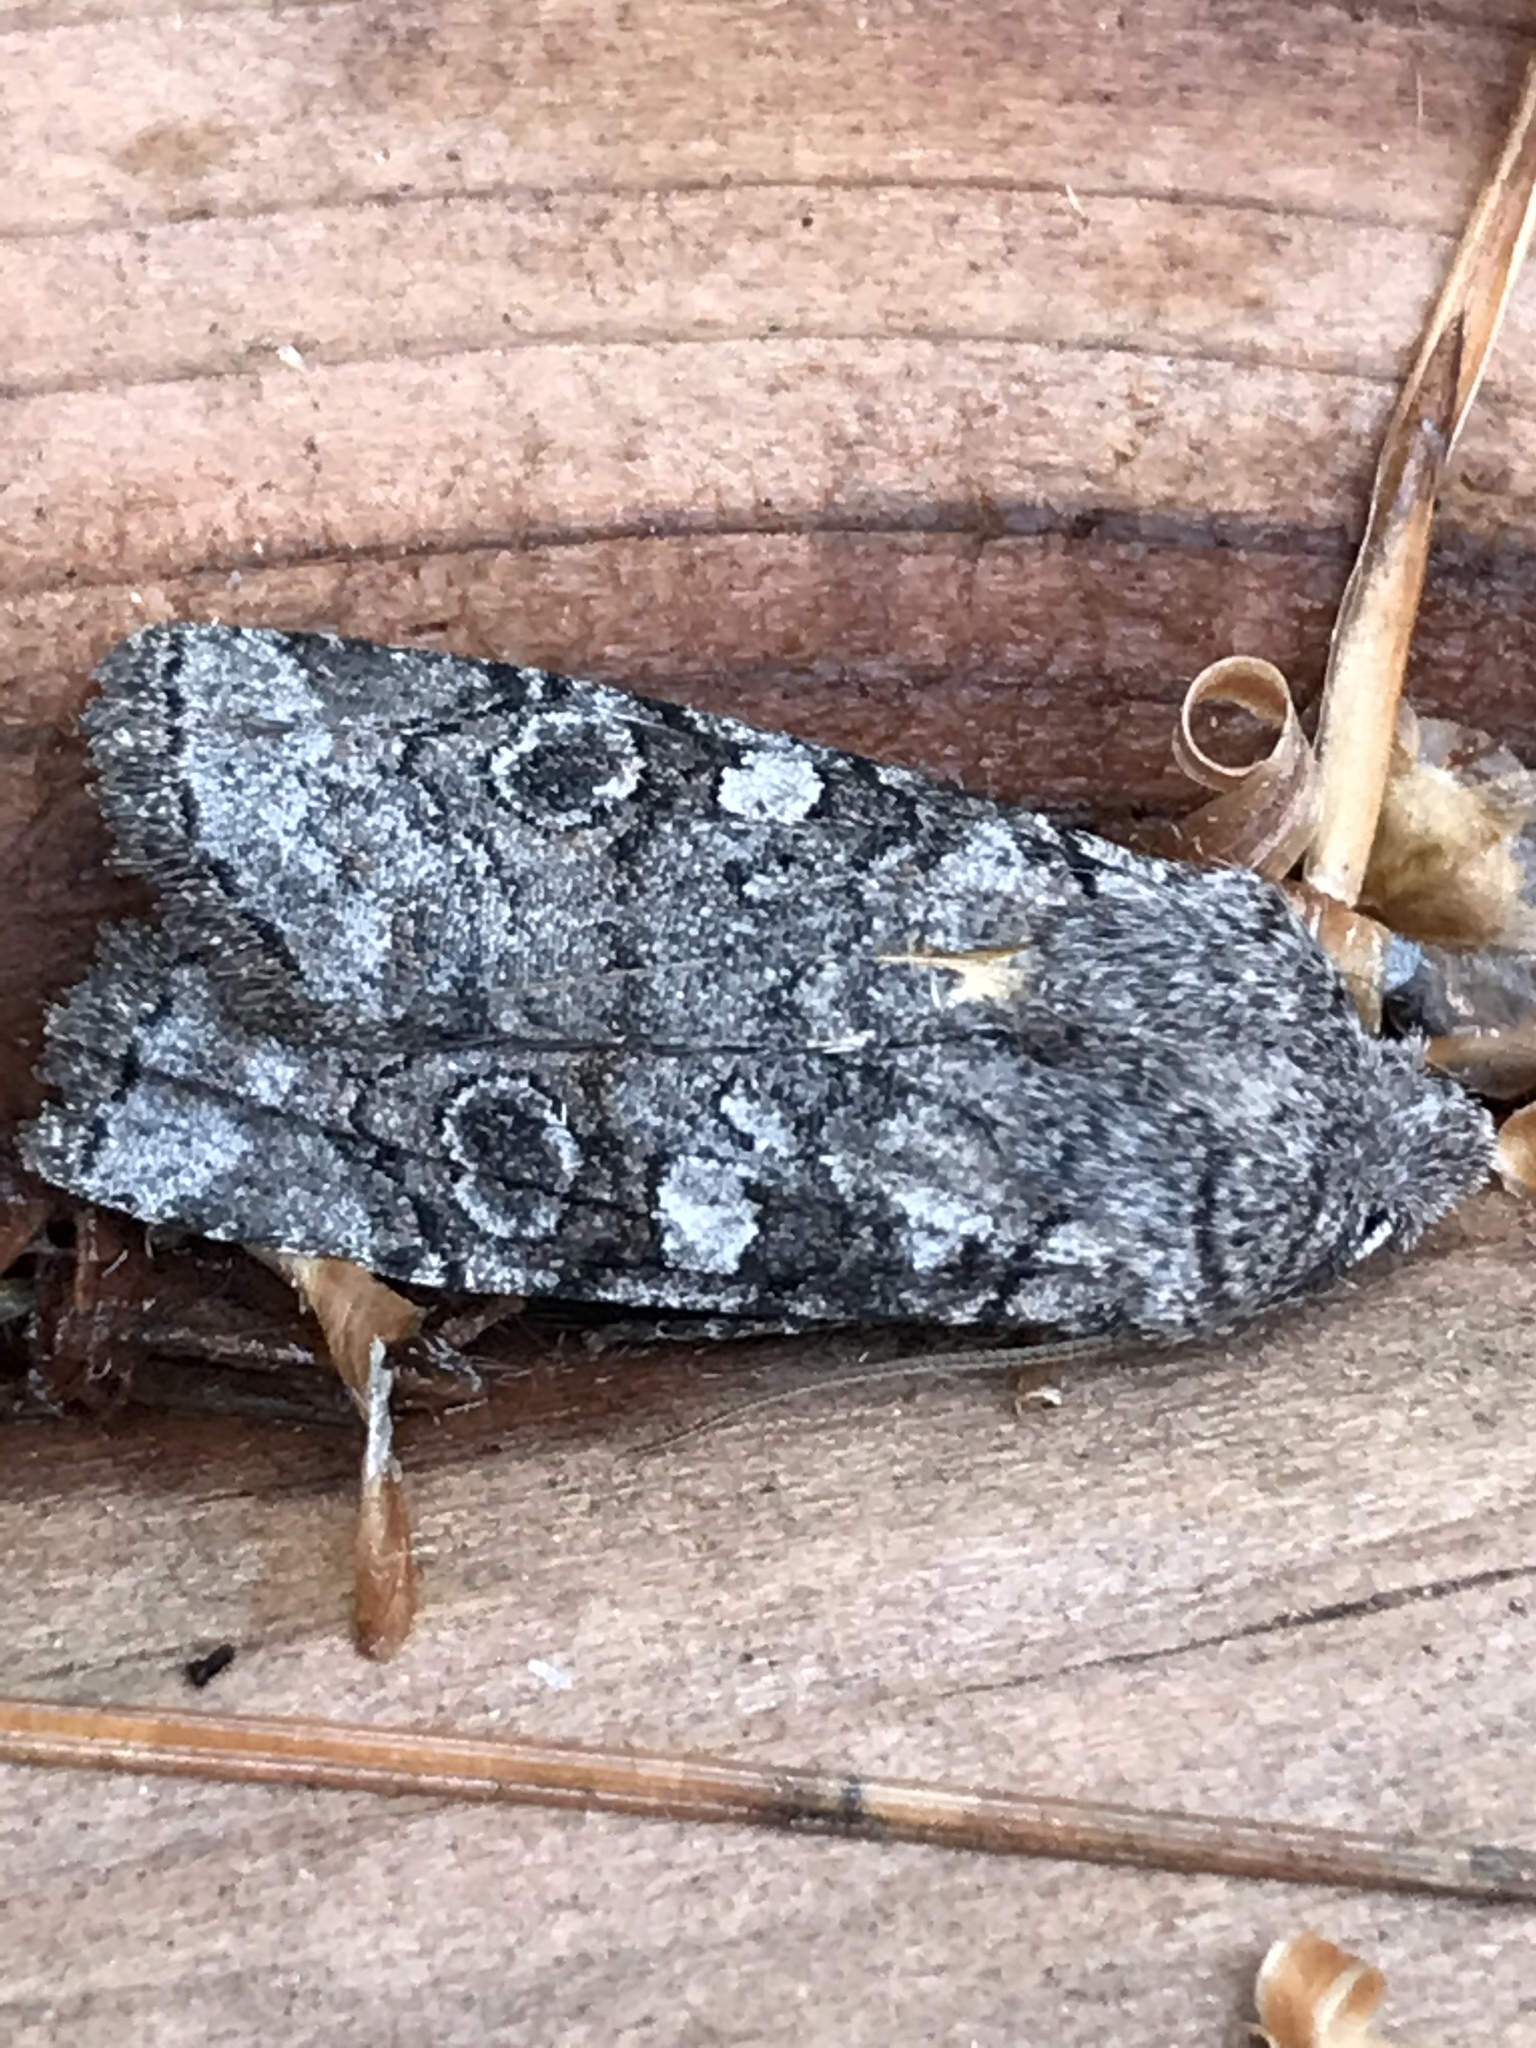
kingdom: Animalia
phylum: Arthropoda
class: Insecta
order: Lepidoptera
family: Noctuidae
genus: Litholomia
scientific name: Litholomia napaea
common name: False pinion moth
